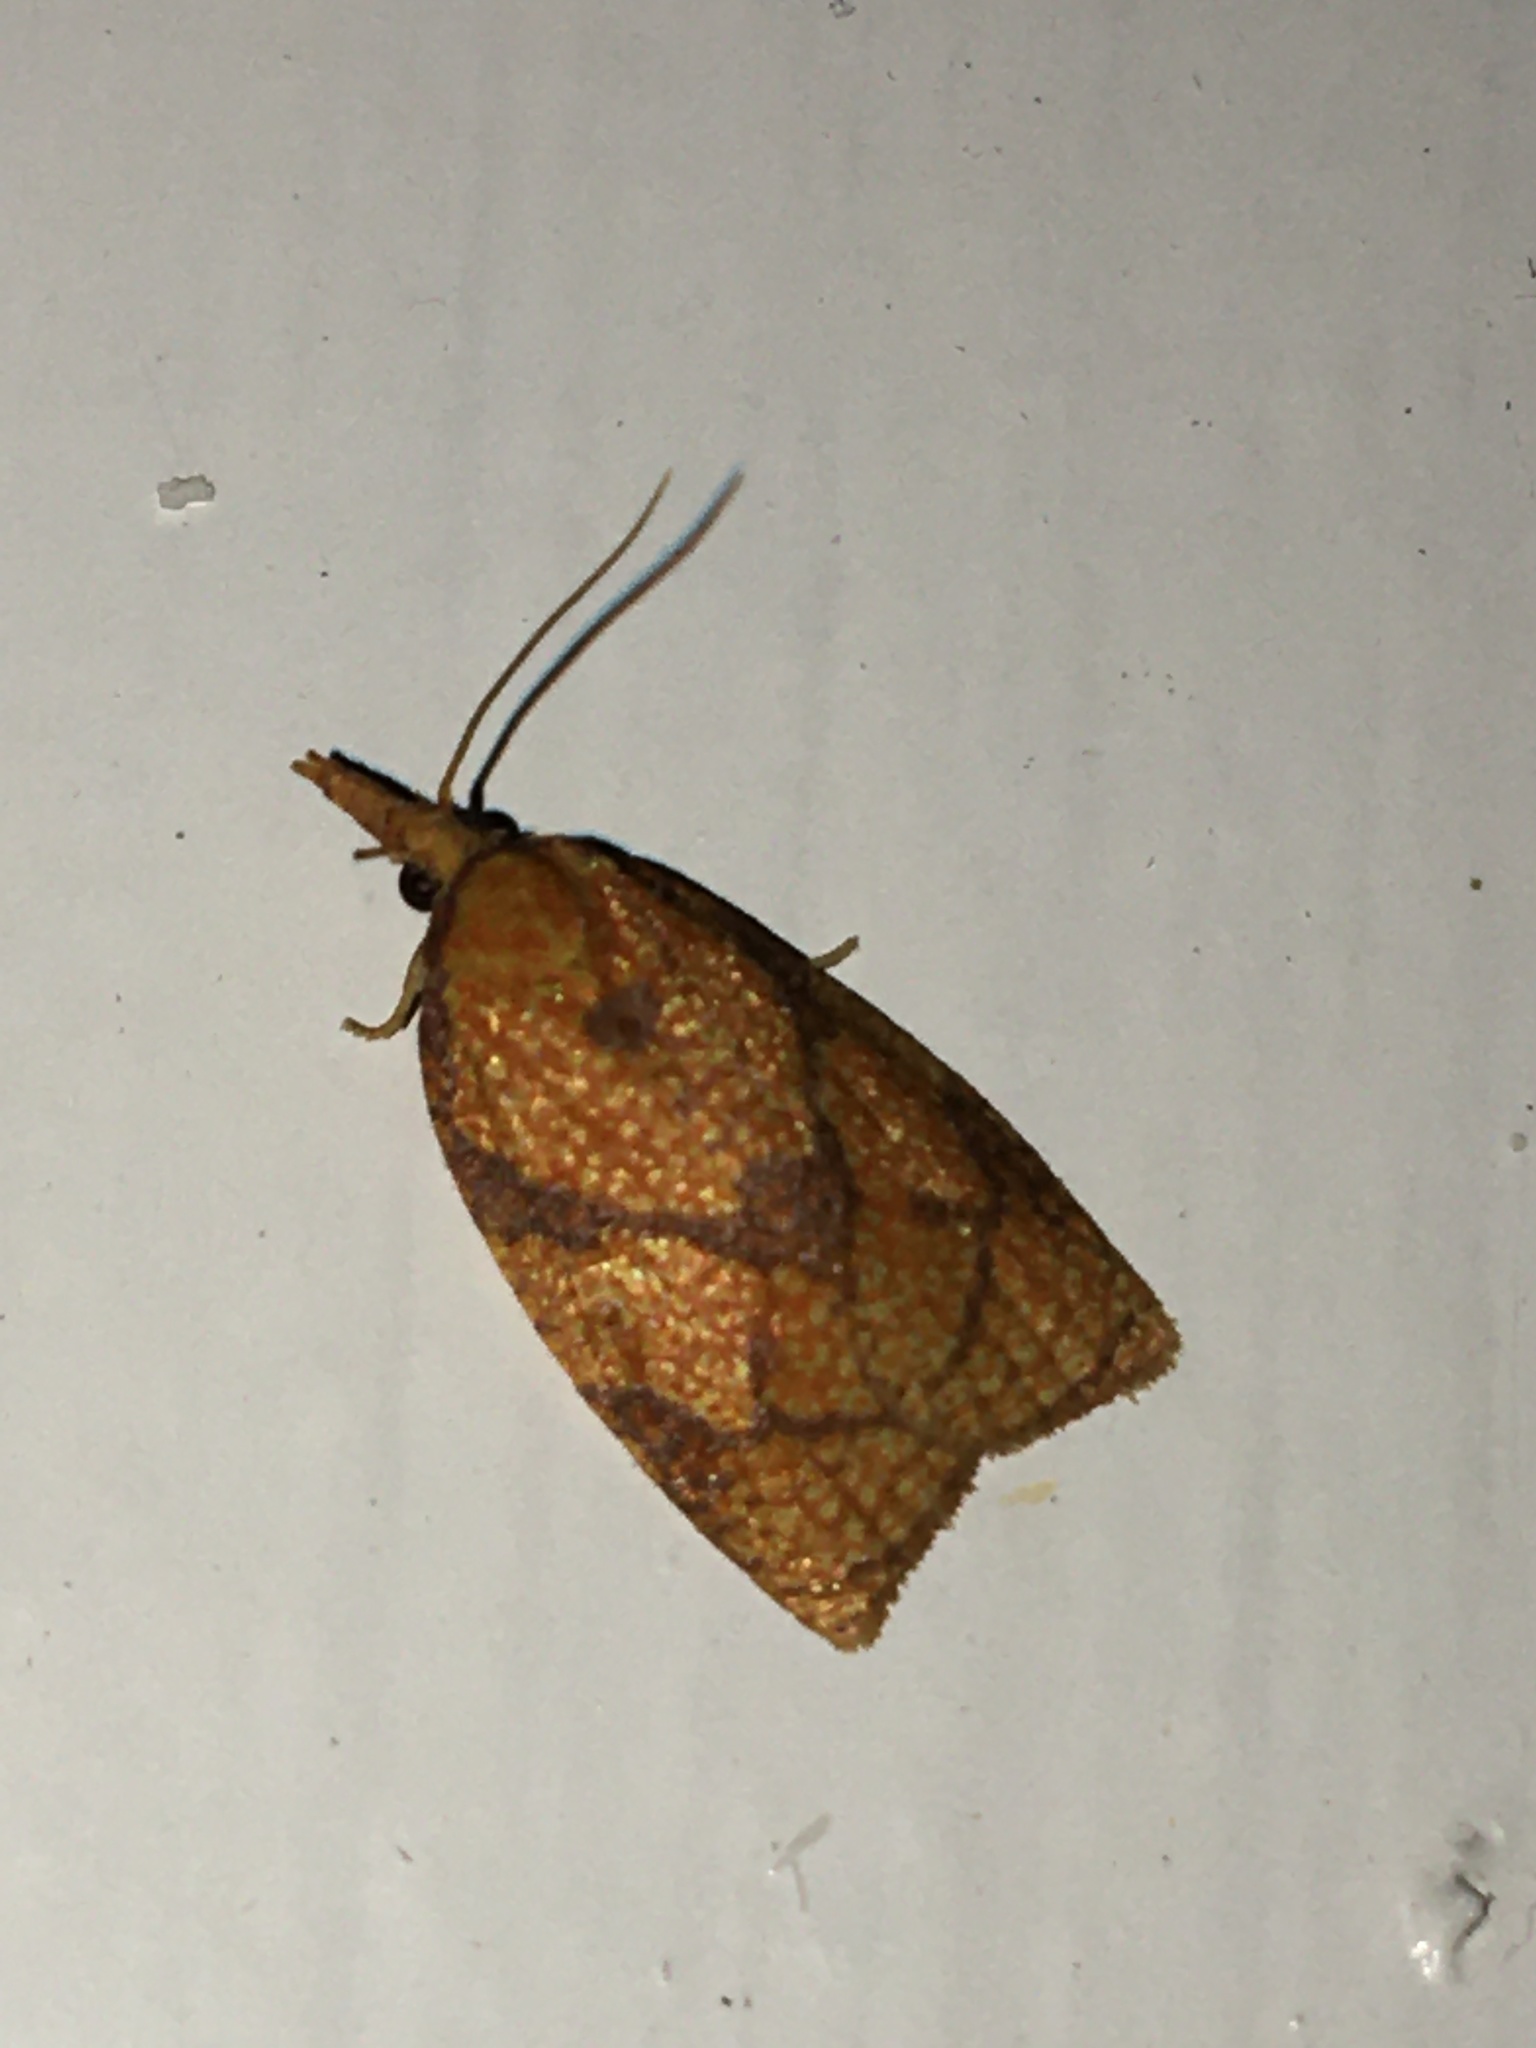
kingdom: Animalia
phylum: Arthropoda
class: Insecta
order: Lepidoptera
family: Tortricidae
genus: Cenopis
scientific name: Cenopis reticulatana
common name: Reticulated fruitworm moth
